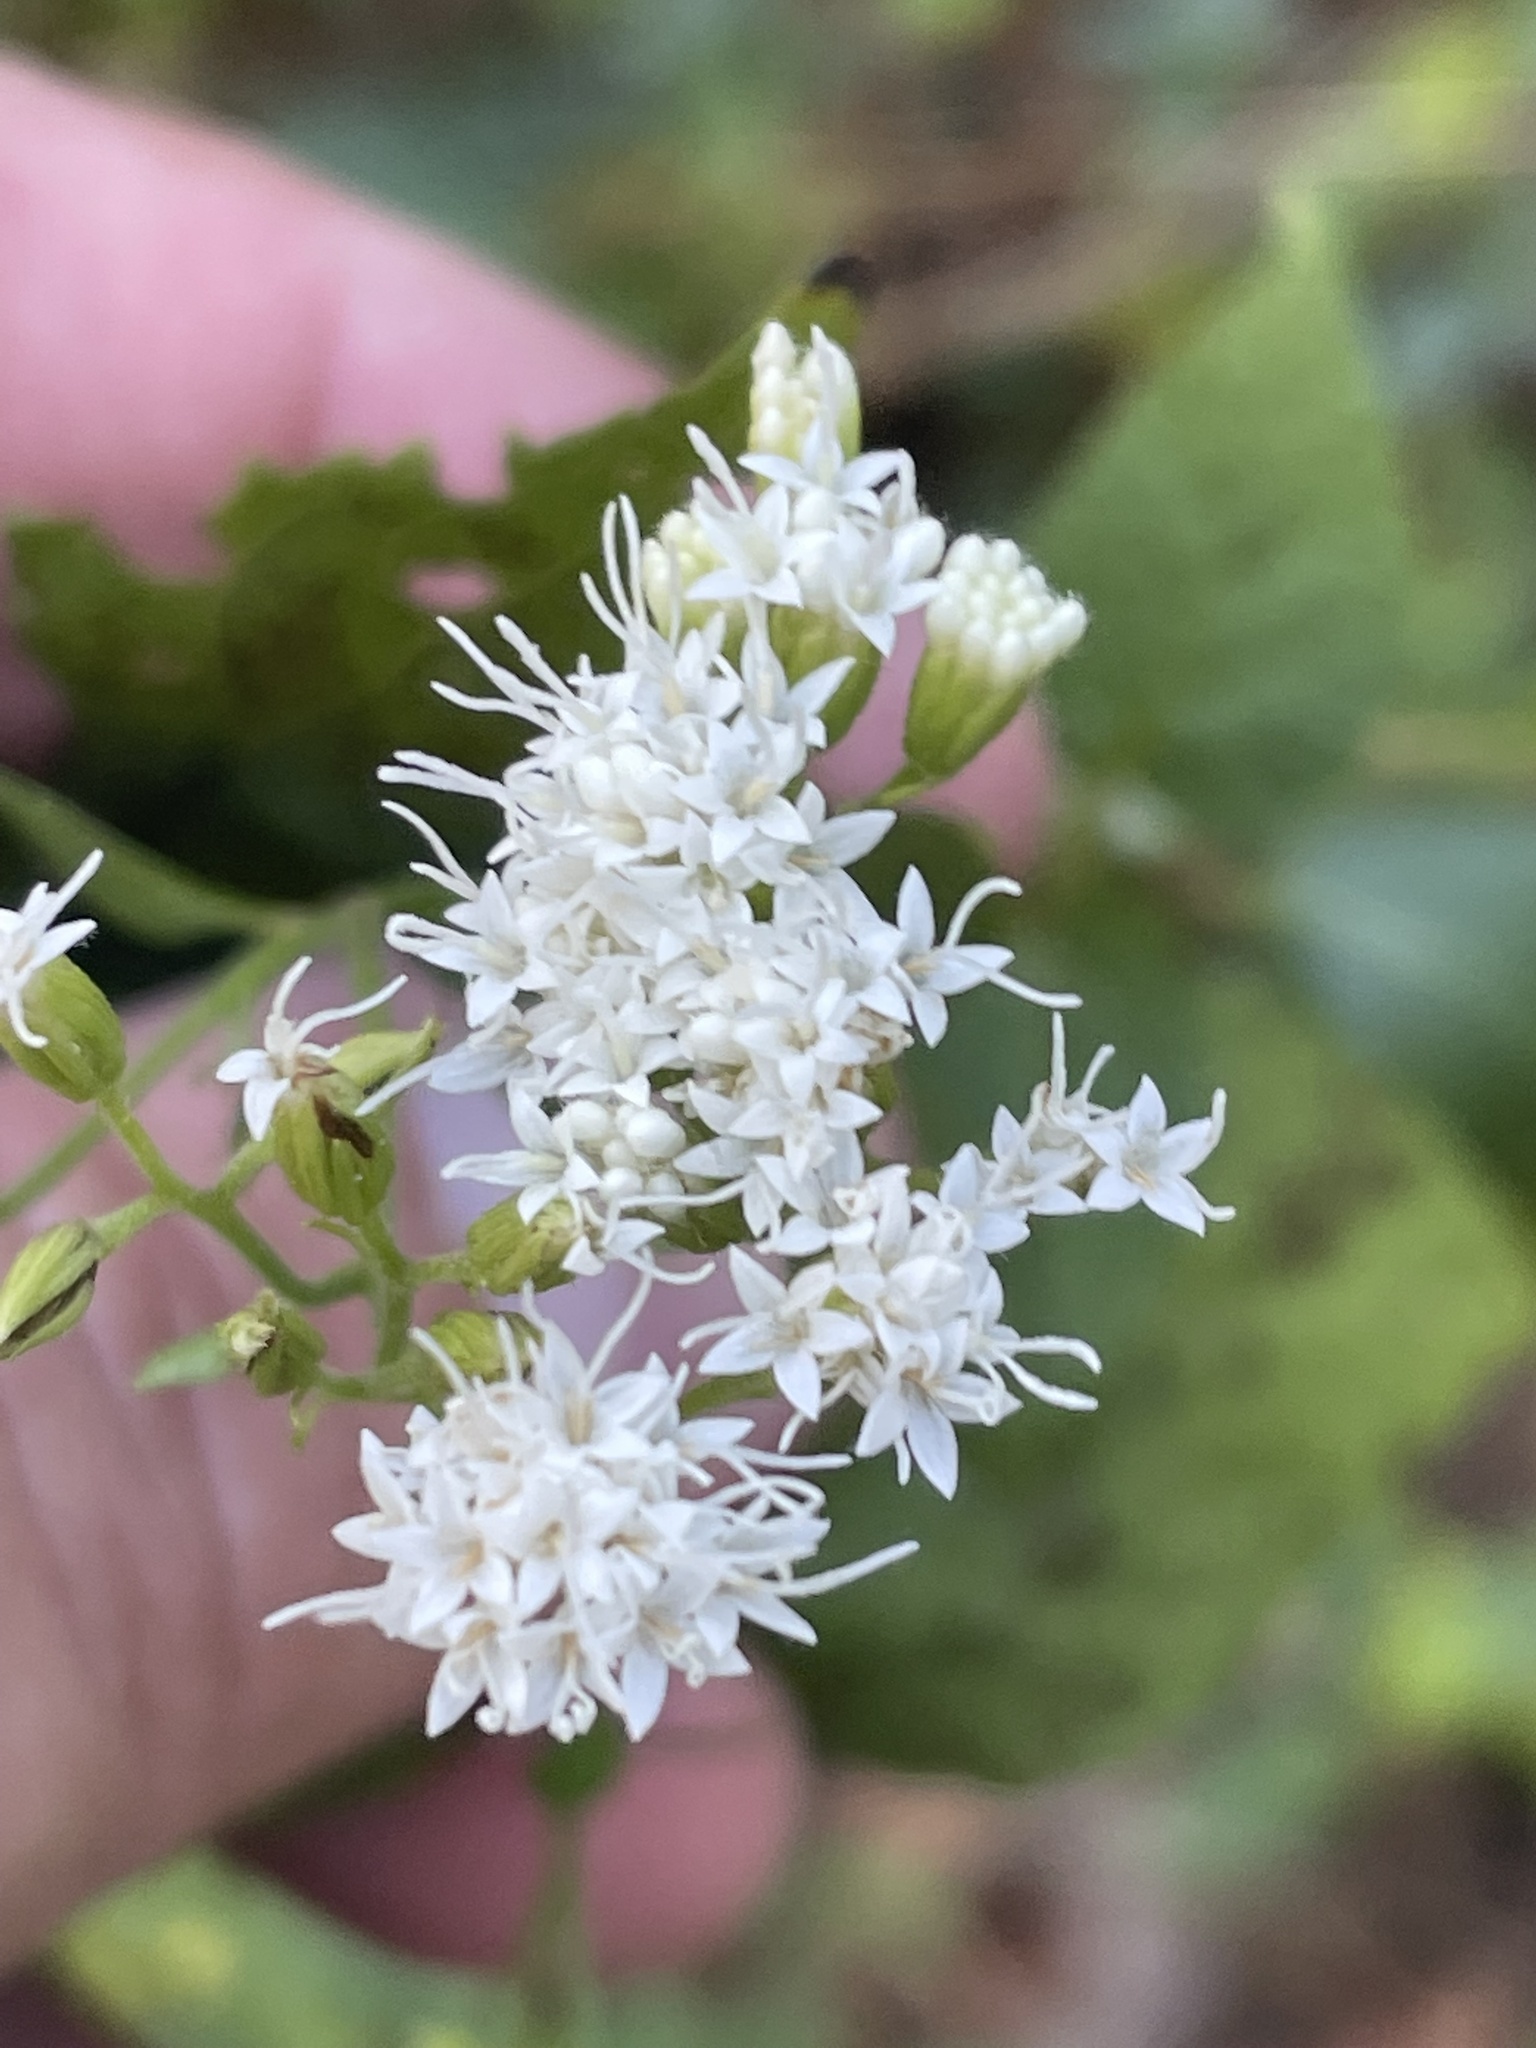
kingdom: Plantae
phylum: Tracheophyta
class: Magnoliopsida
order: Asterales
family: Asteraceae
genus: Ageratina
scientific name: Ageratina aromatica
